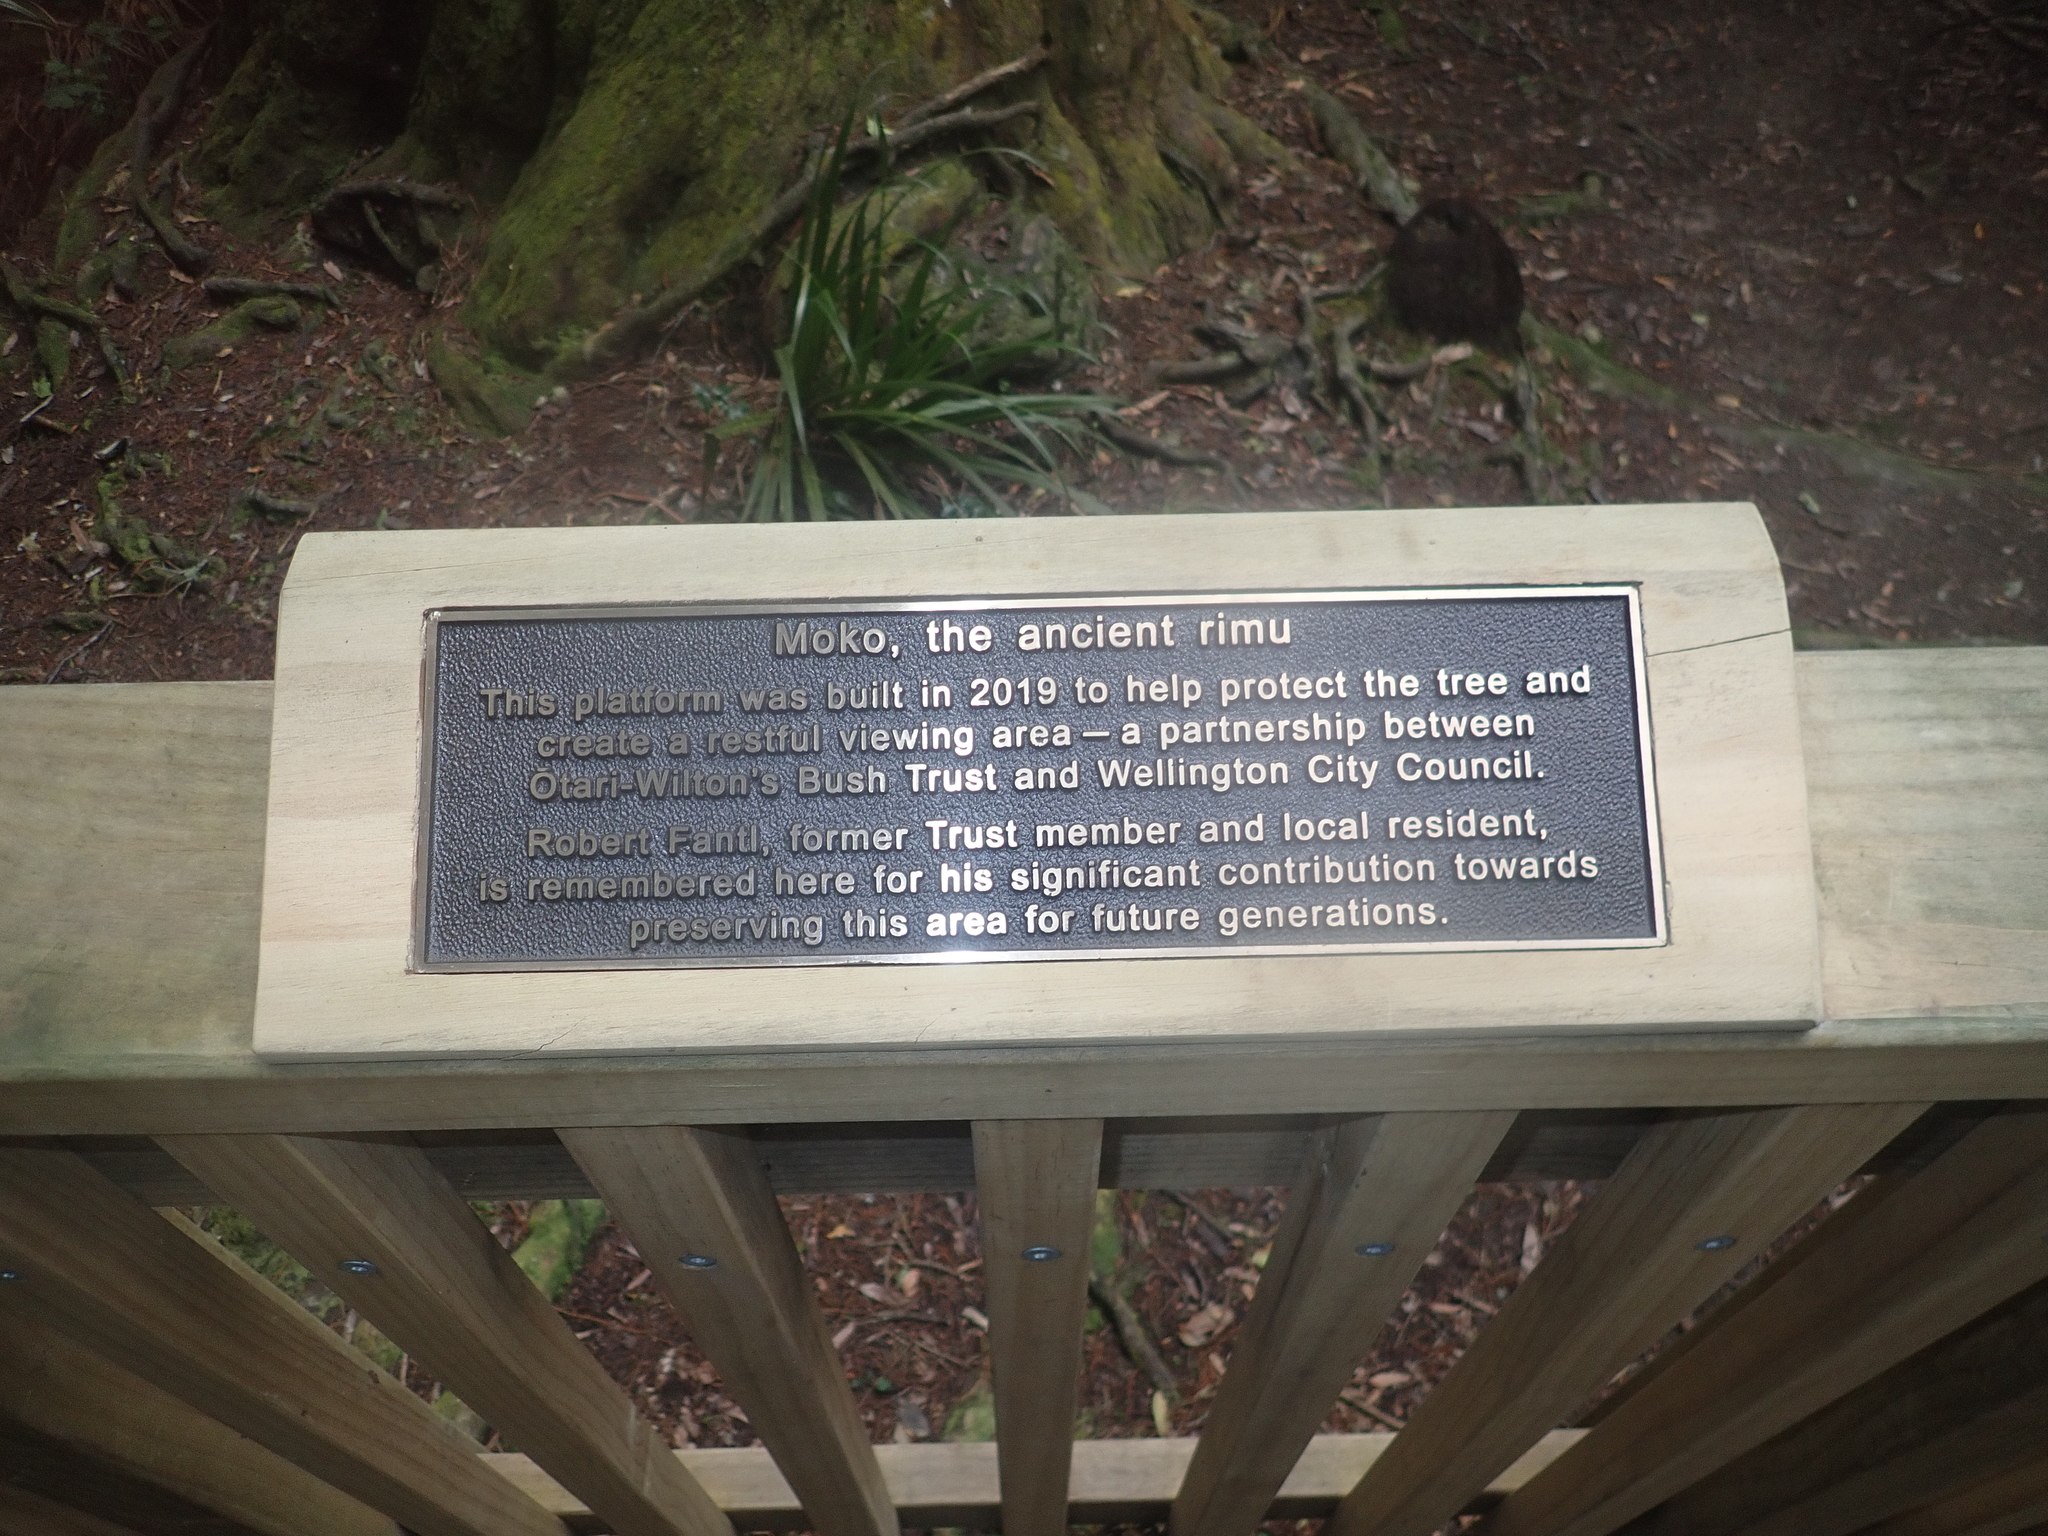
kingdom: Plantae
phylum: Tracheophyta
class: Pinopsida
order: Pinales
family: Podocarpaceae
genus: Dacrydium
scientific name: Dacrydium cupressinum
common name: Red pine
